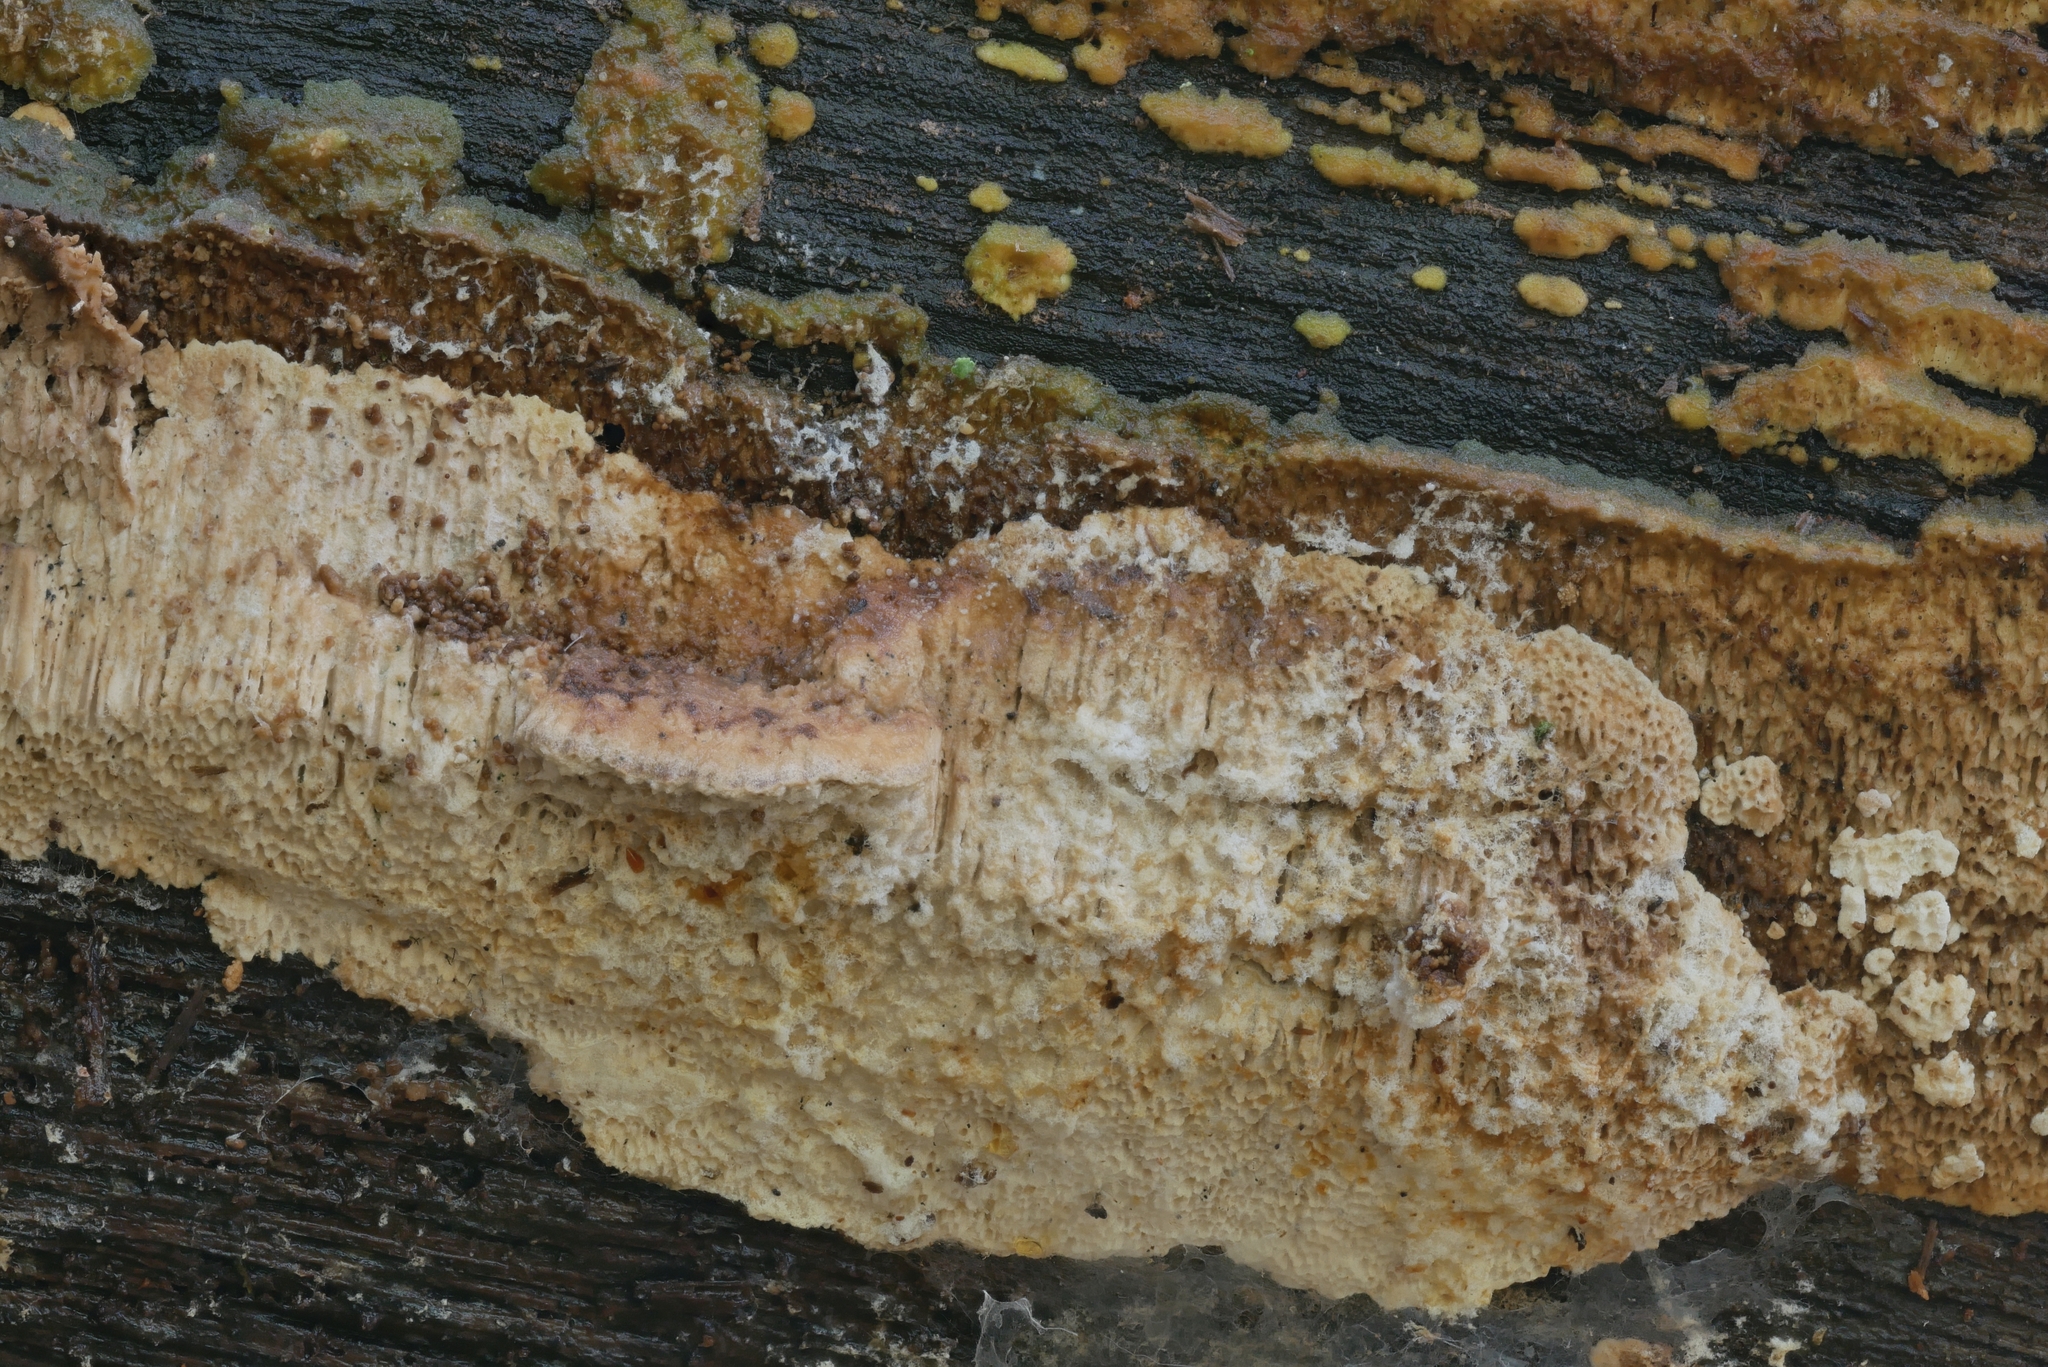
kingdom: Fungi
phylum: Basidiomycota
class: Agaricomycetes
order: Polyporales
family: Fomitopsidaceae
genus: Fomitopsis
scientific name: Fomitopsis
